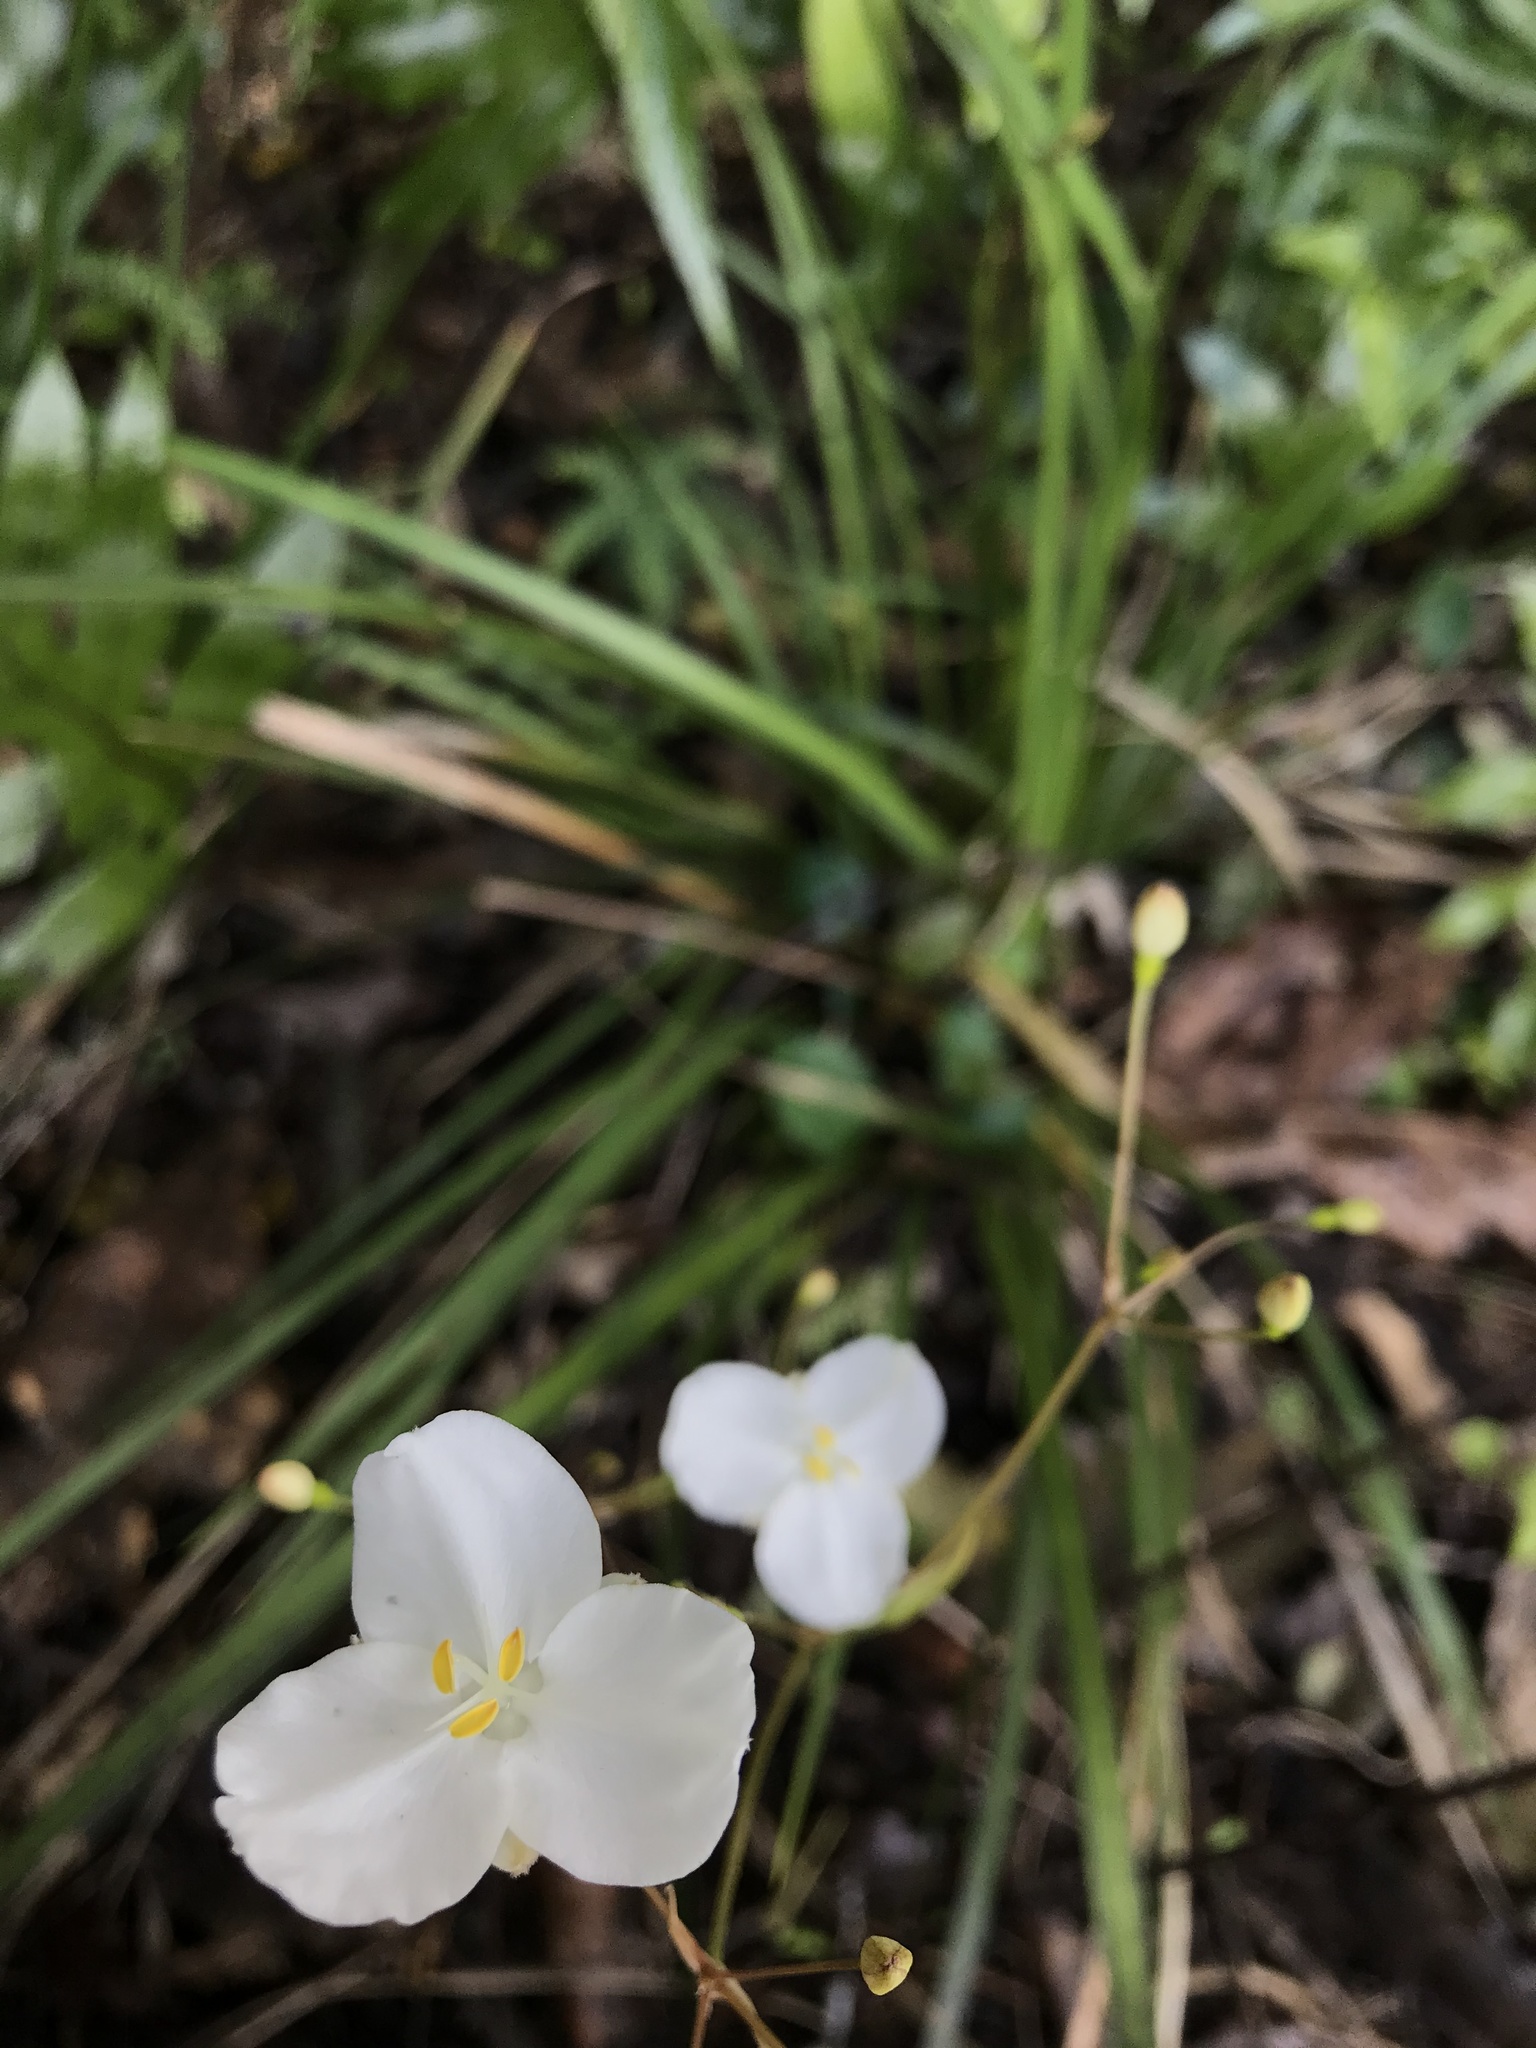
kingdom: Plantae
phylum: Tracheophyta
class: Liliopsida
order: Asparagales
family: Iridaceae
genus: Libertia
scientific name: Libertia ixioides
